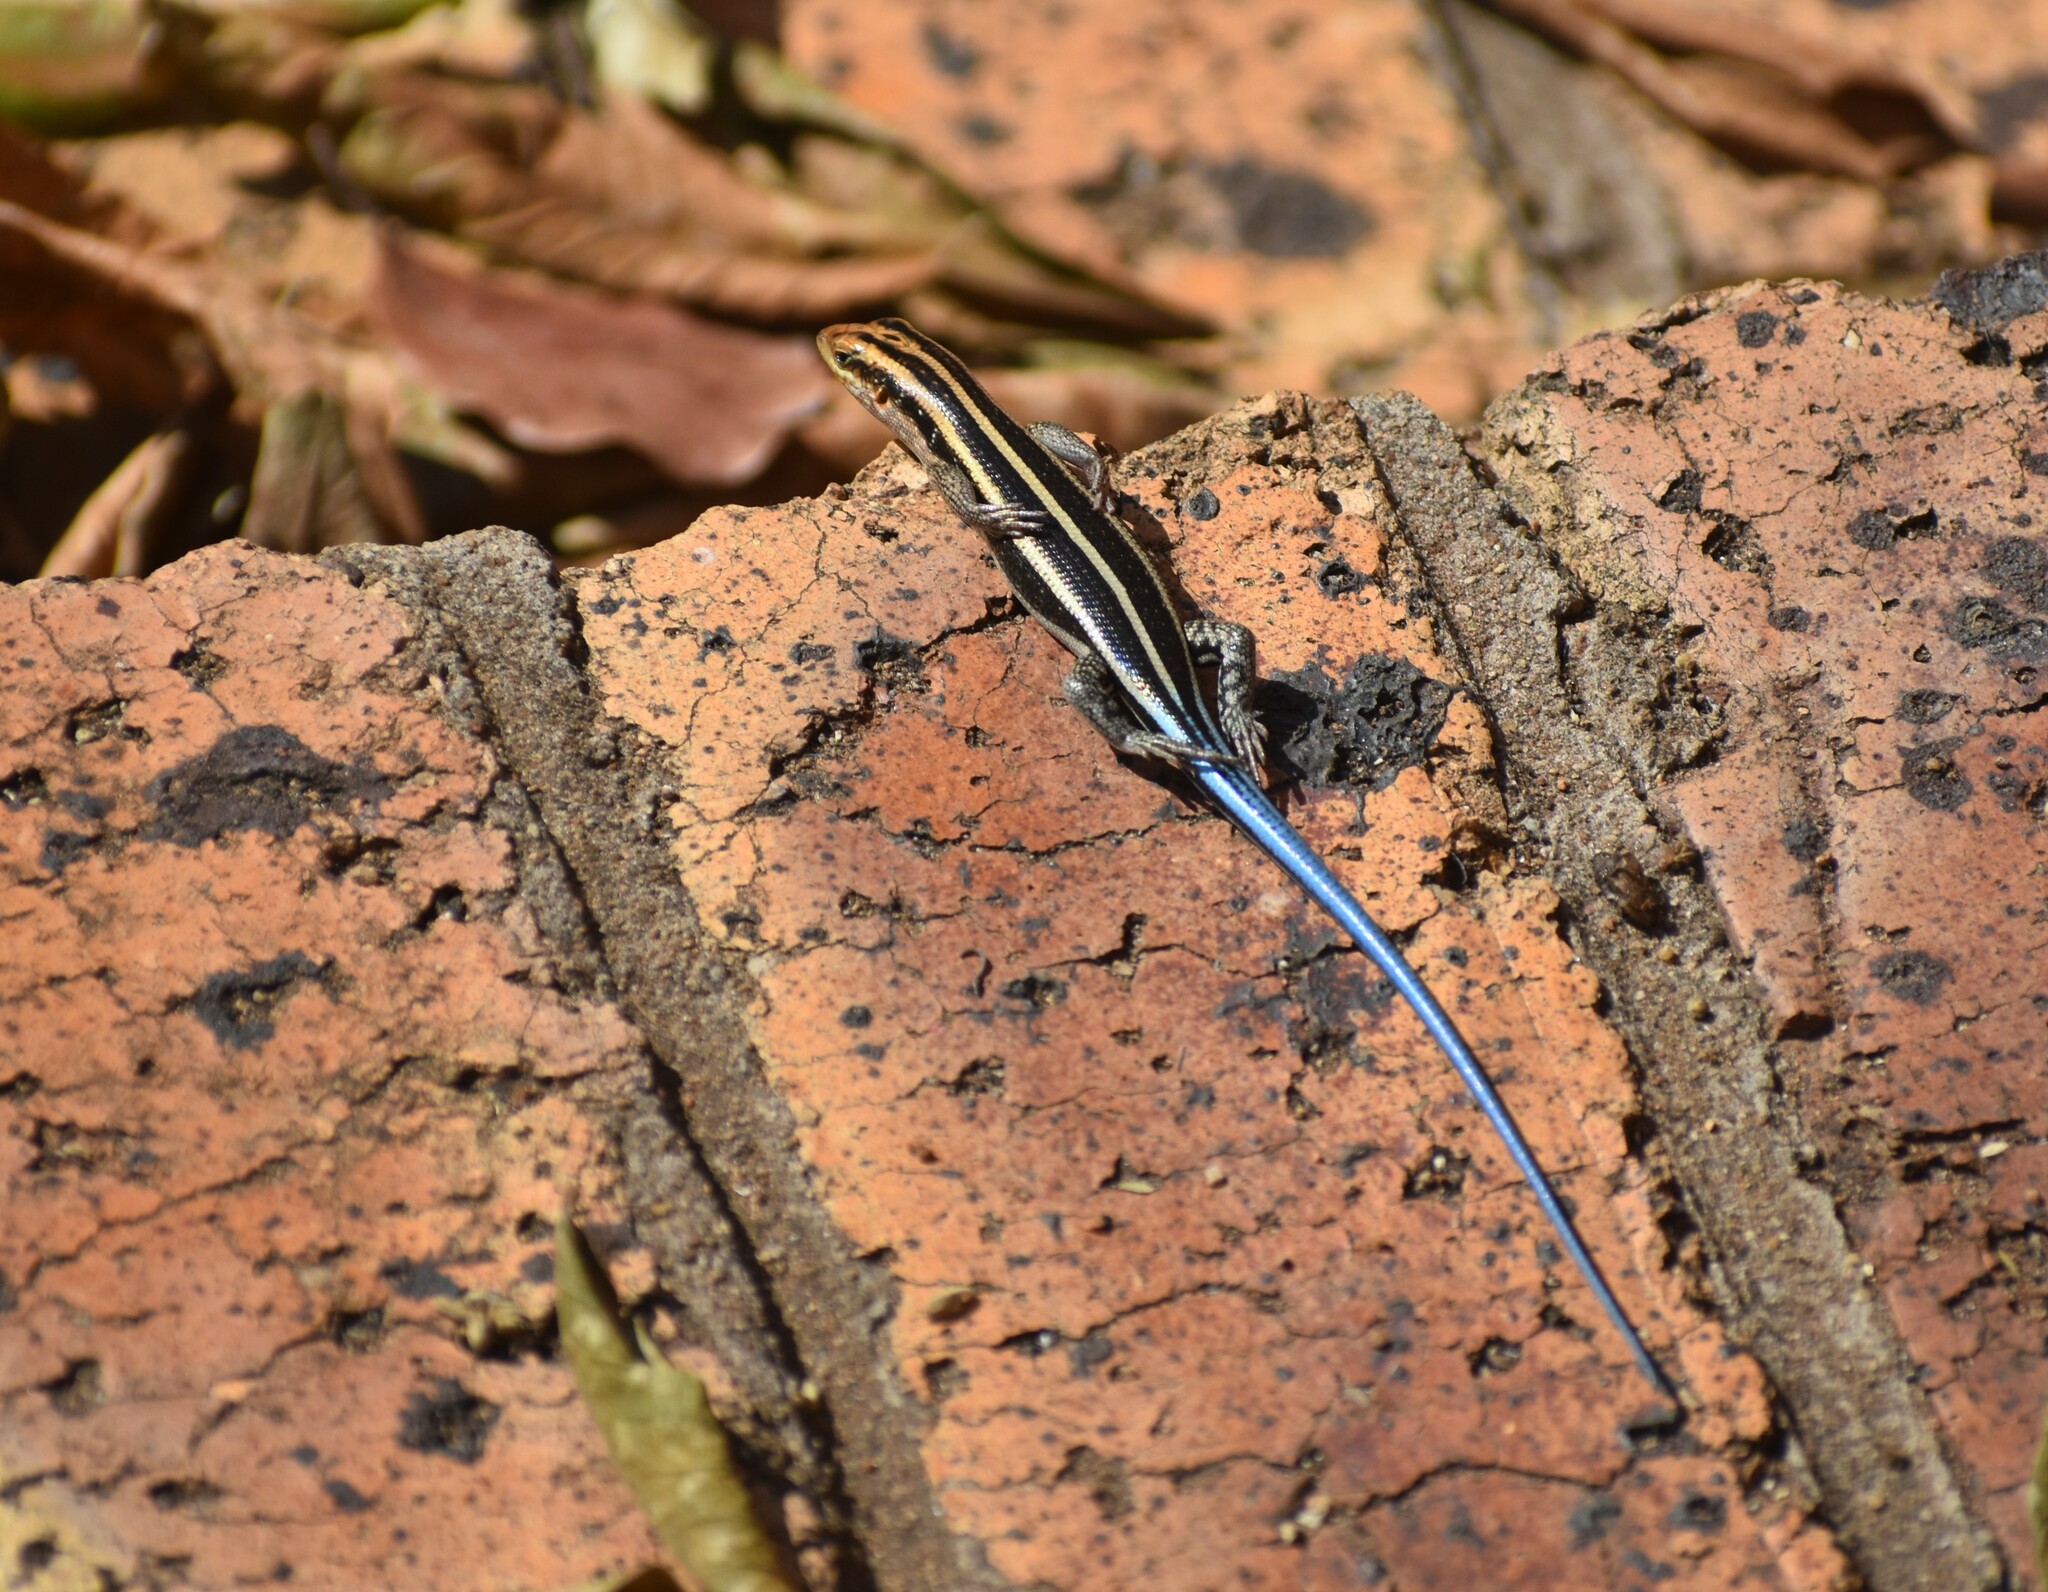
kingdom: Animalia
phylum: Chordata
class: Squamata
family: Scincidae
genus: Trachylepis
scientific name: Trachylepis margaritifera
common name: Rainbow skink
